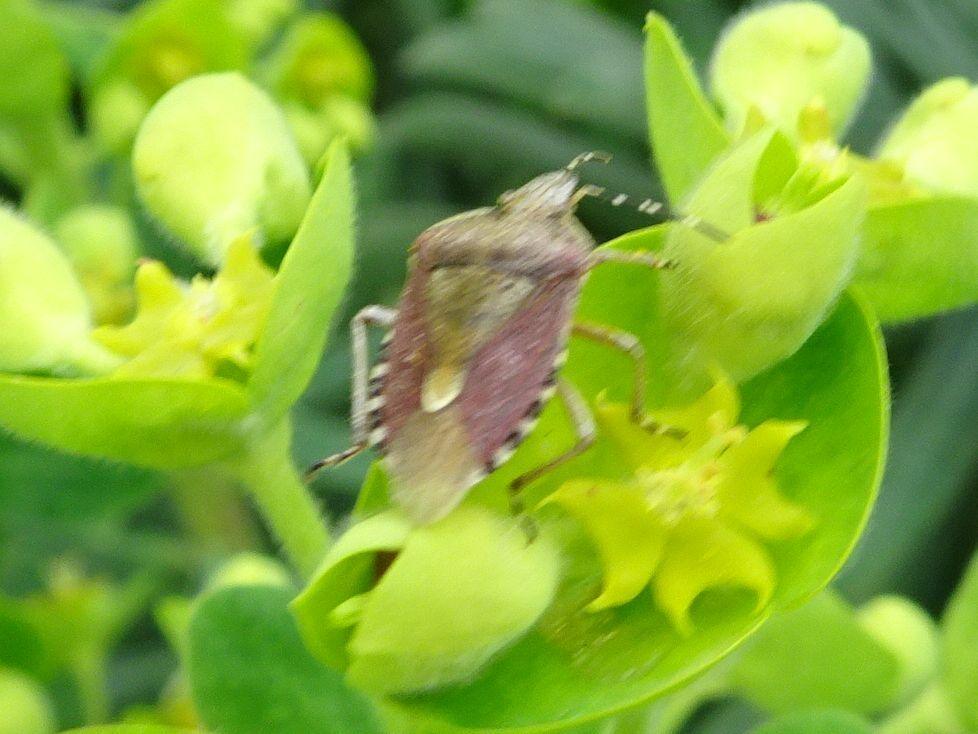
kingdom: Animalia
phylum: Arthropoda
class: Insecta
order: Hemiptera
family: Pentatomidae
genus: Dolycoris
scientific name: Dolycoris baccarum
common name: Sloe bug
